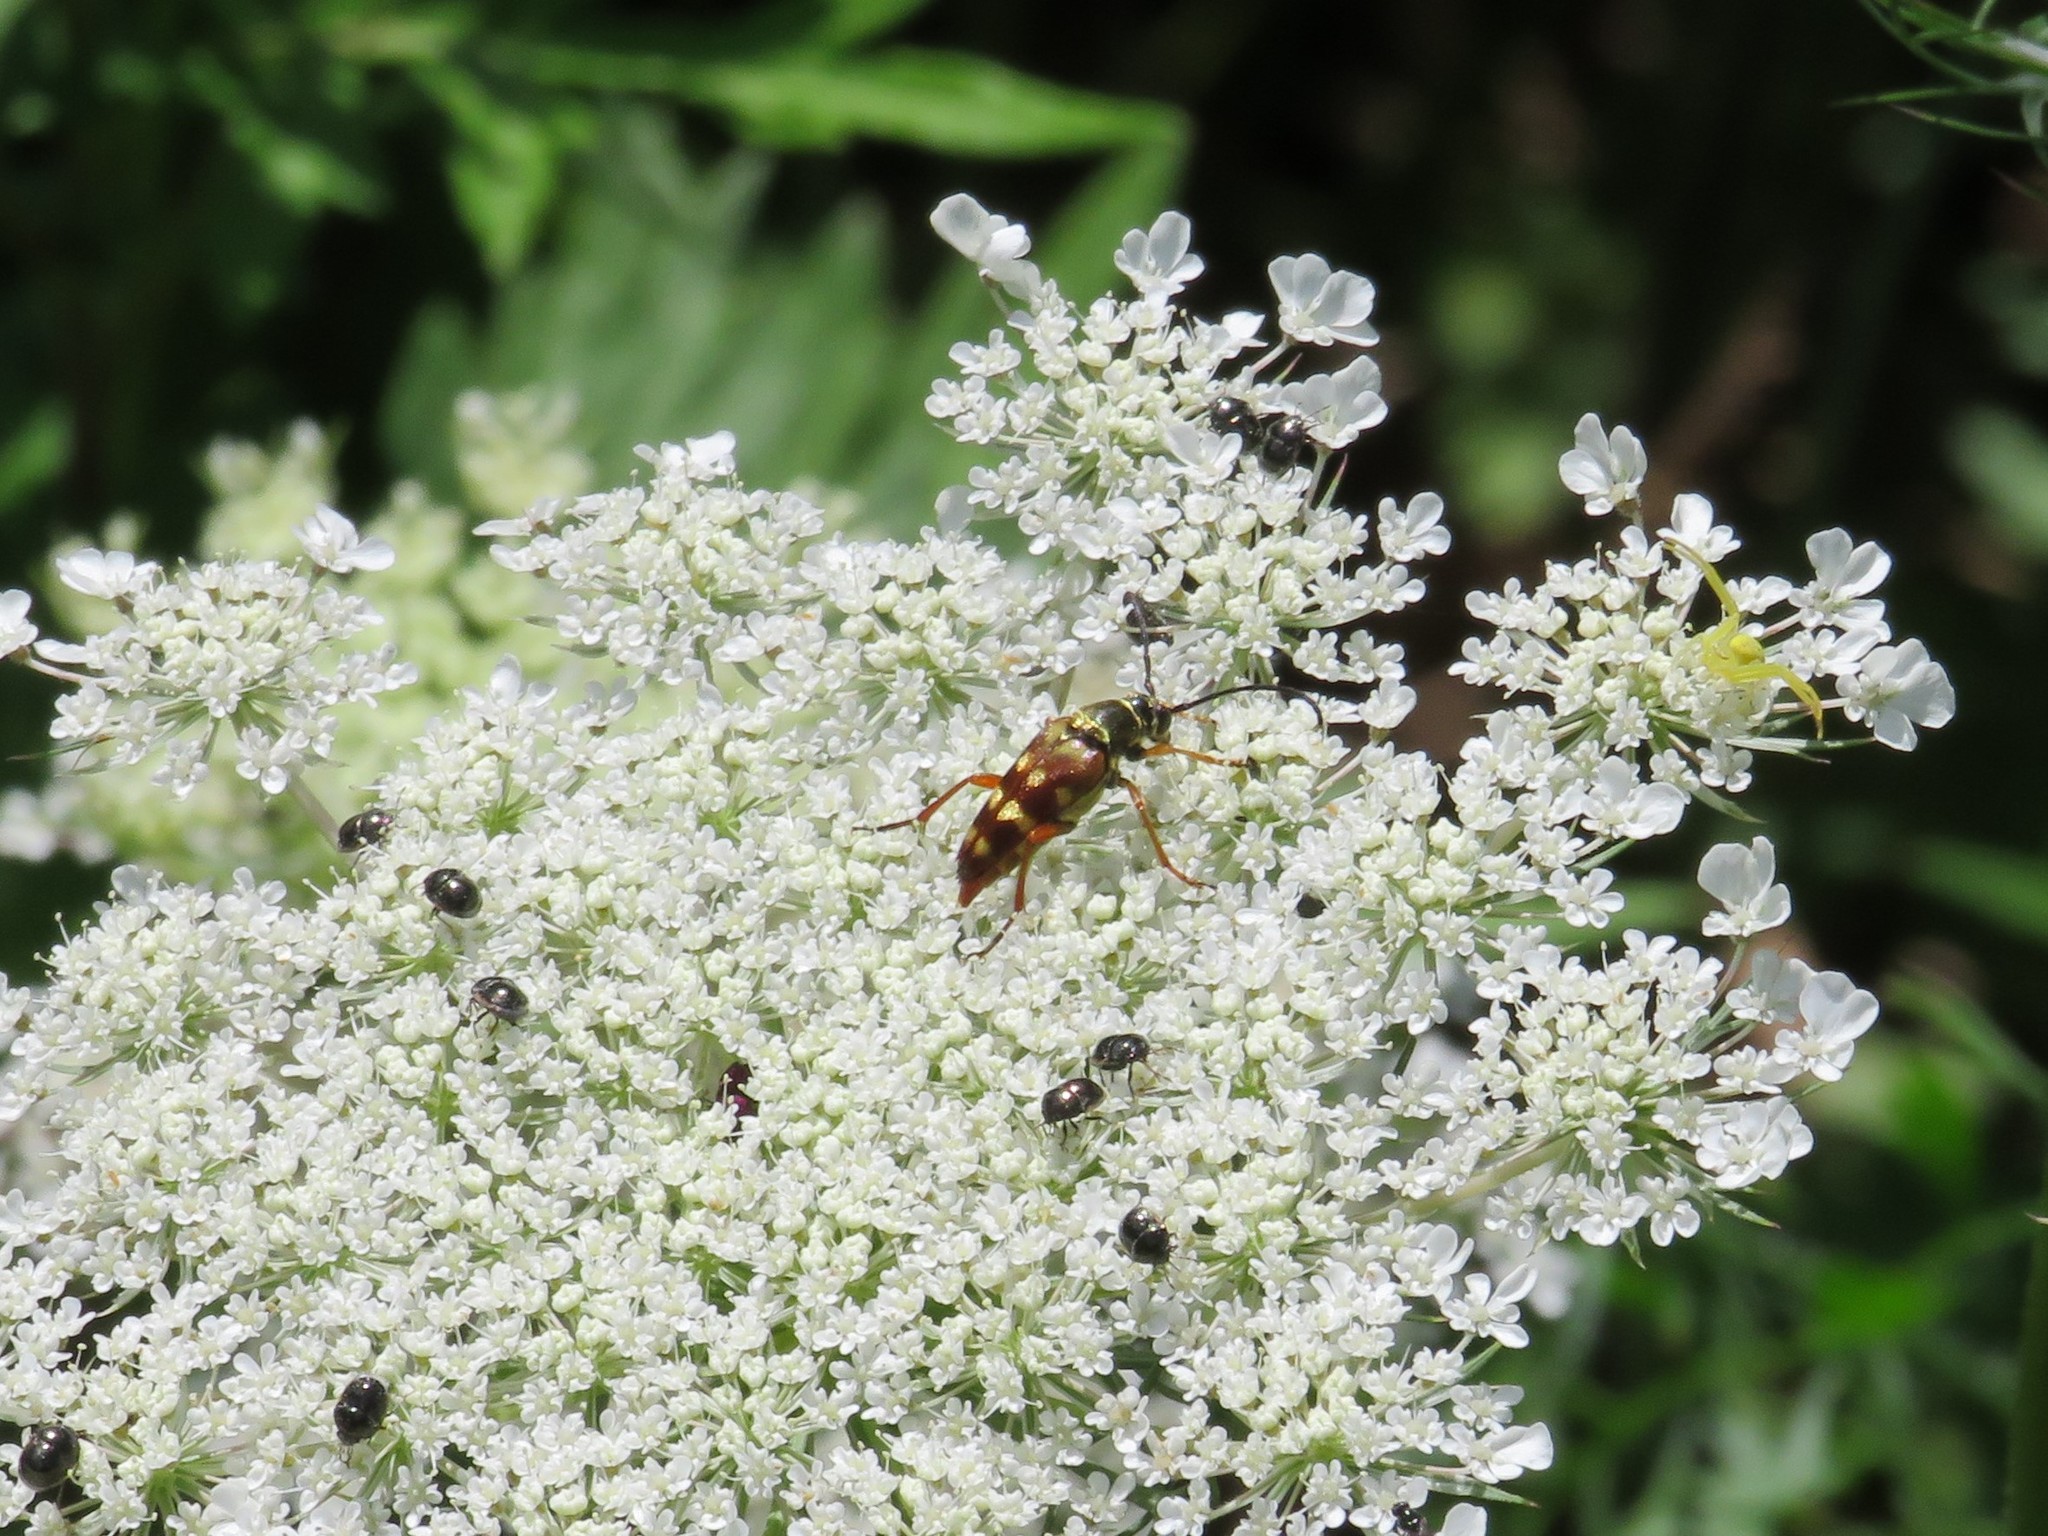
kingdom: Animalia
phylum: Arthropoda
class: Insecta
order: Coleoptera
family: Cerambycidae
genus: Typocerus
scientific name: Typocerus velutinus
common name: Banded longhorn beetle
